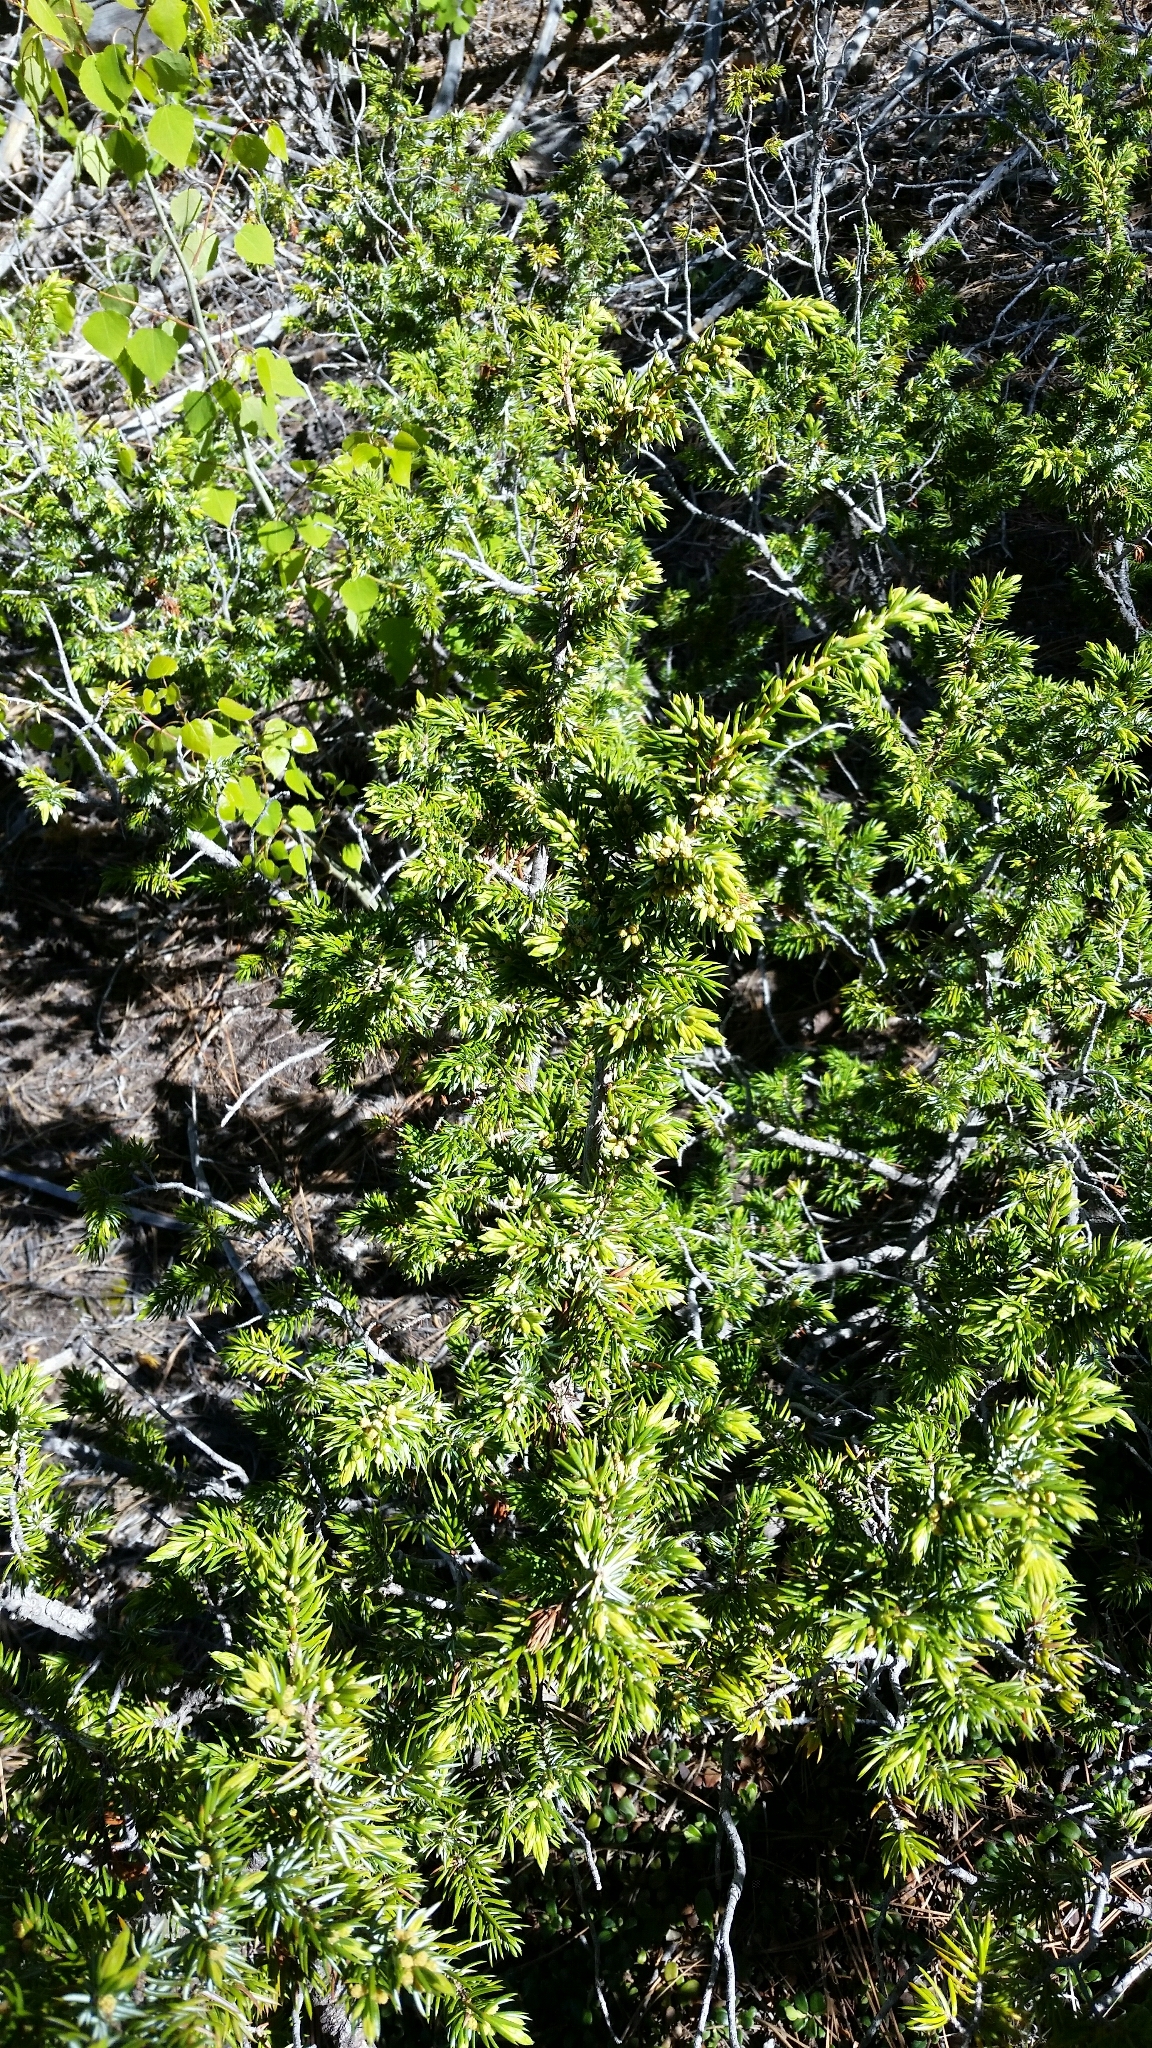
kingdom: Plantae
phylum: Tracheophyta
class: Pinopsida
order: Pinales
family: Cupressaceae
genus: Juniperus
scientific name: Juniperus communis
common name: Common juniper
